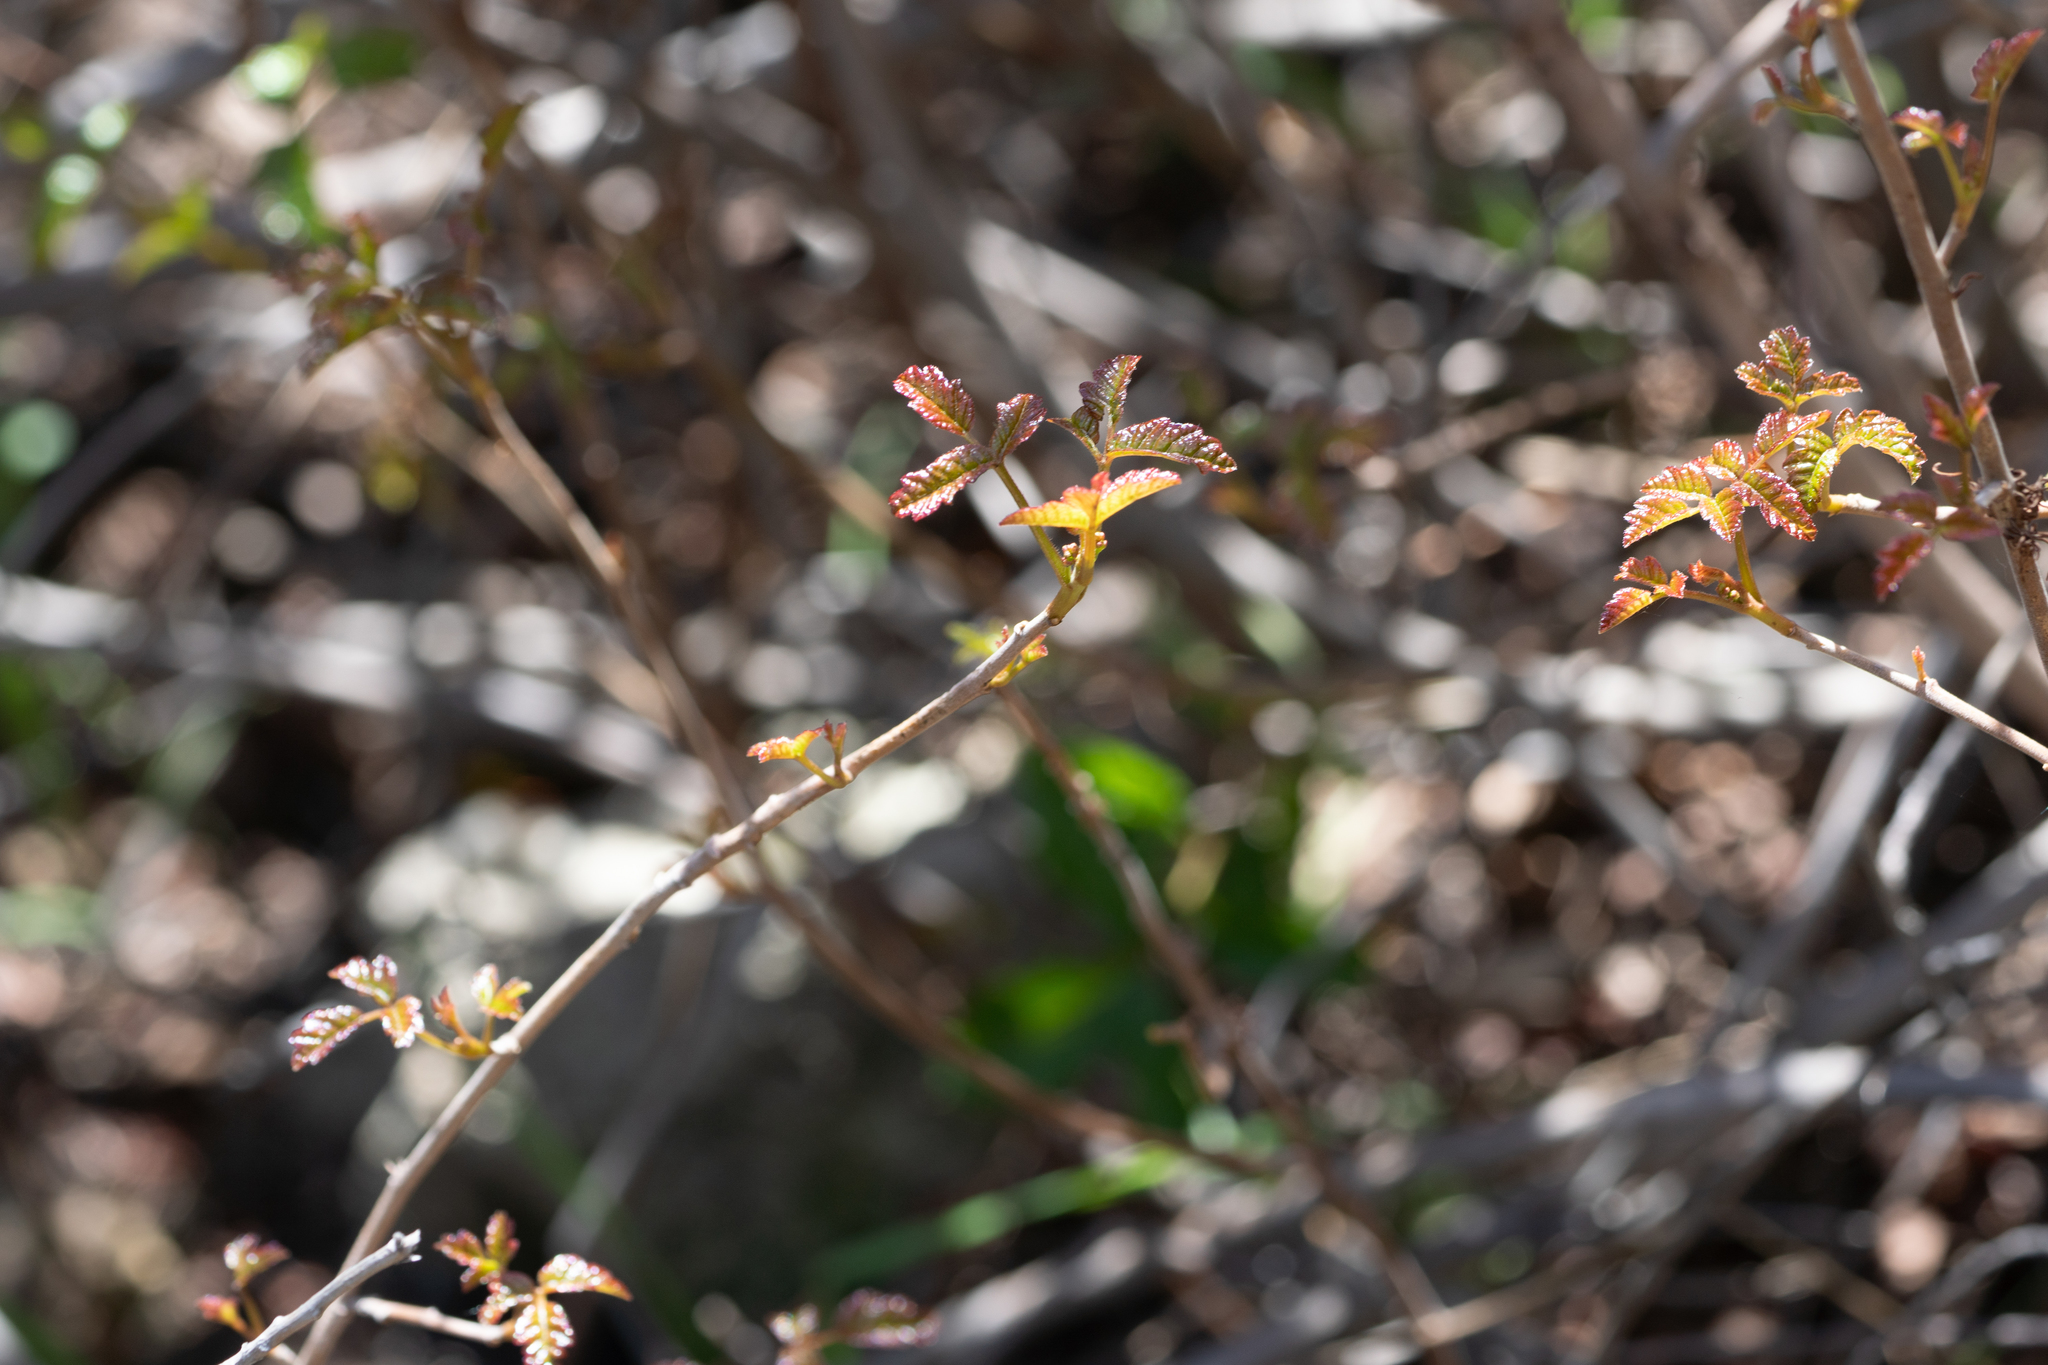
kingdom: Plantae
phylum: Tracheophyta
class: Magnoliopsida
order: Sapindales
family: Anacardiaceae
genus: Toxicodendron
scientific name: Toxicodendron diversilobum
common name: Pacific poison-oak
